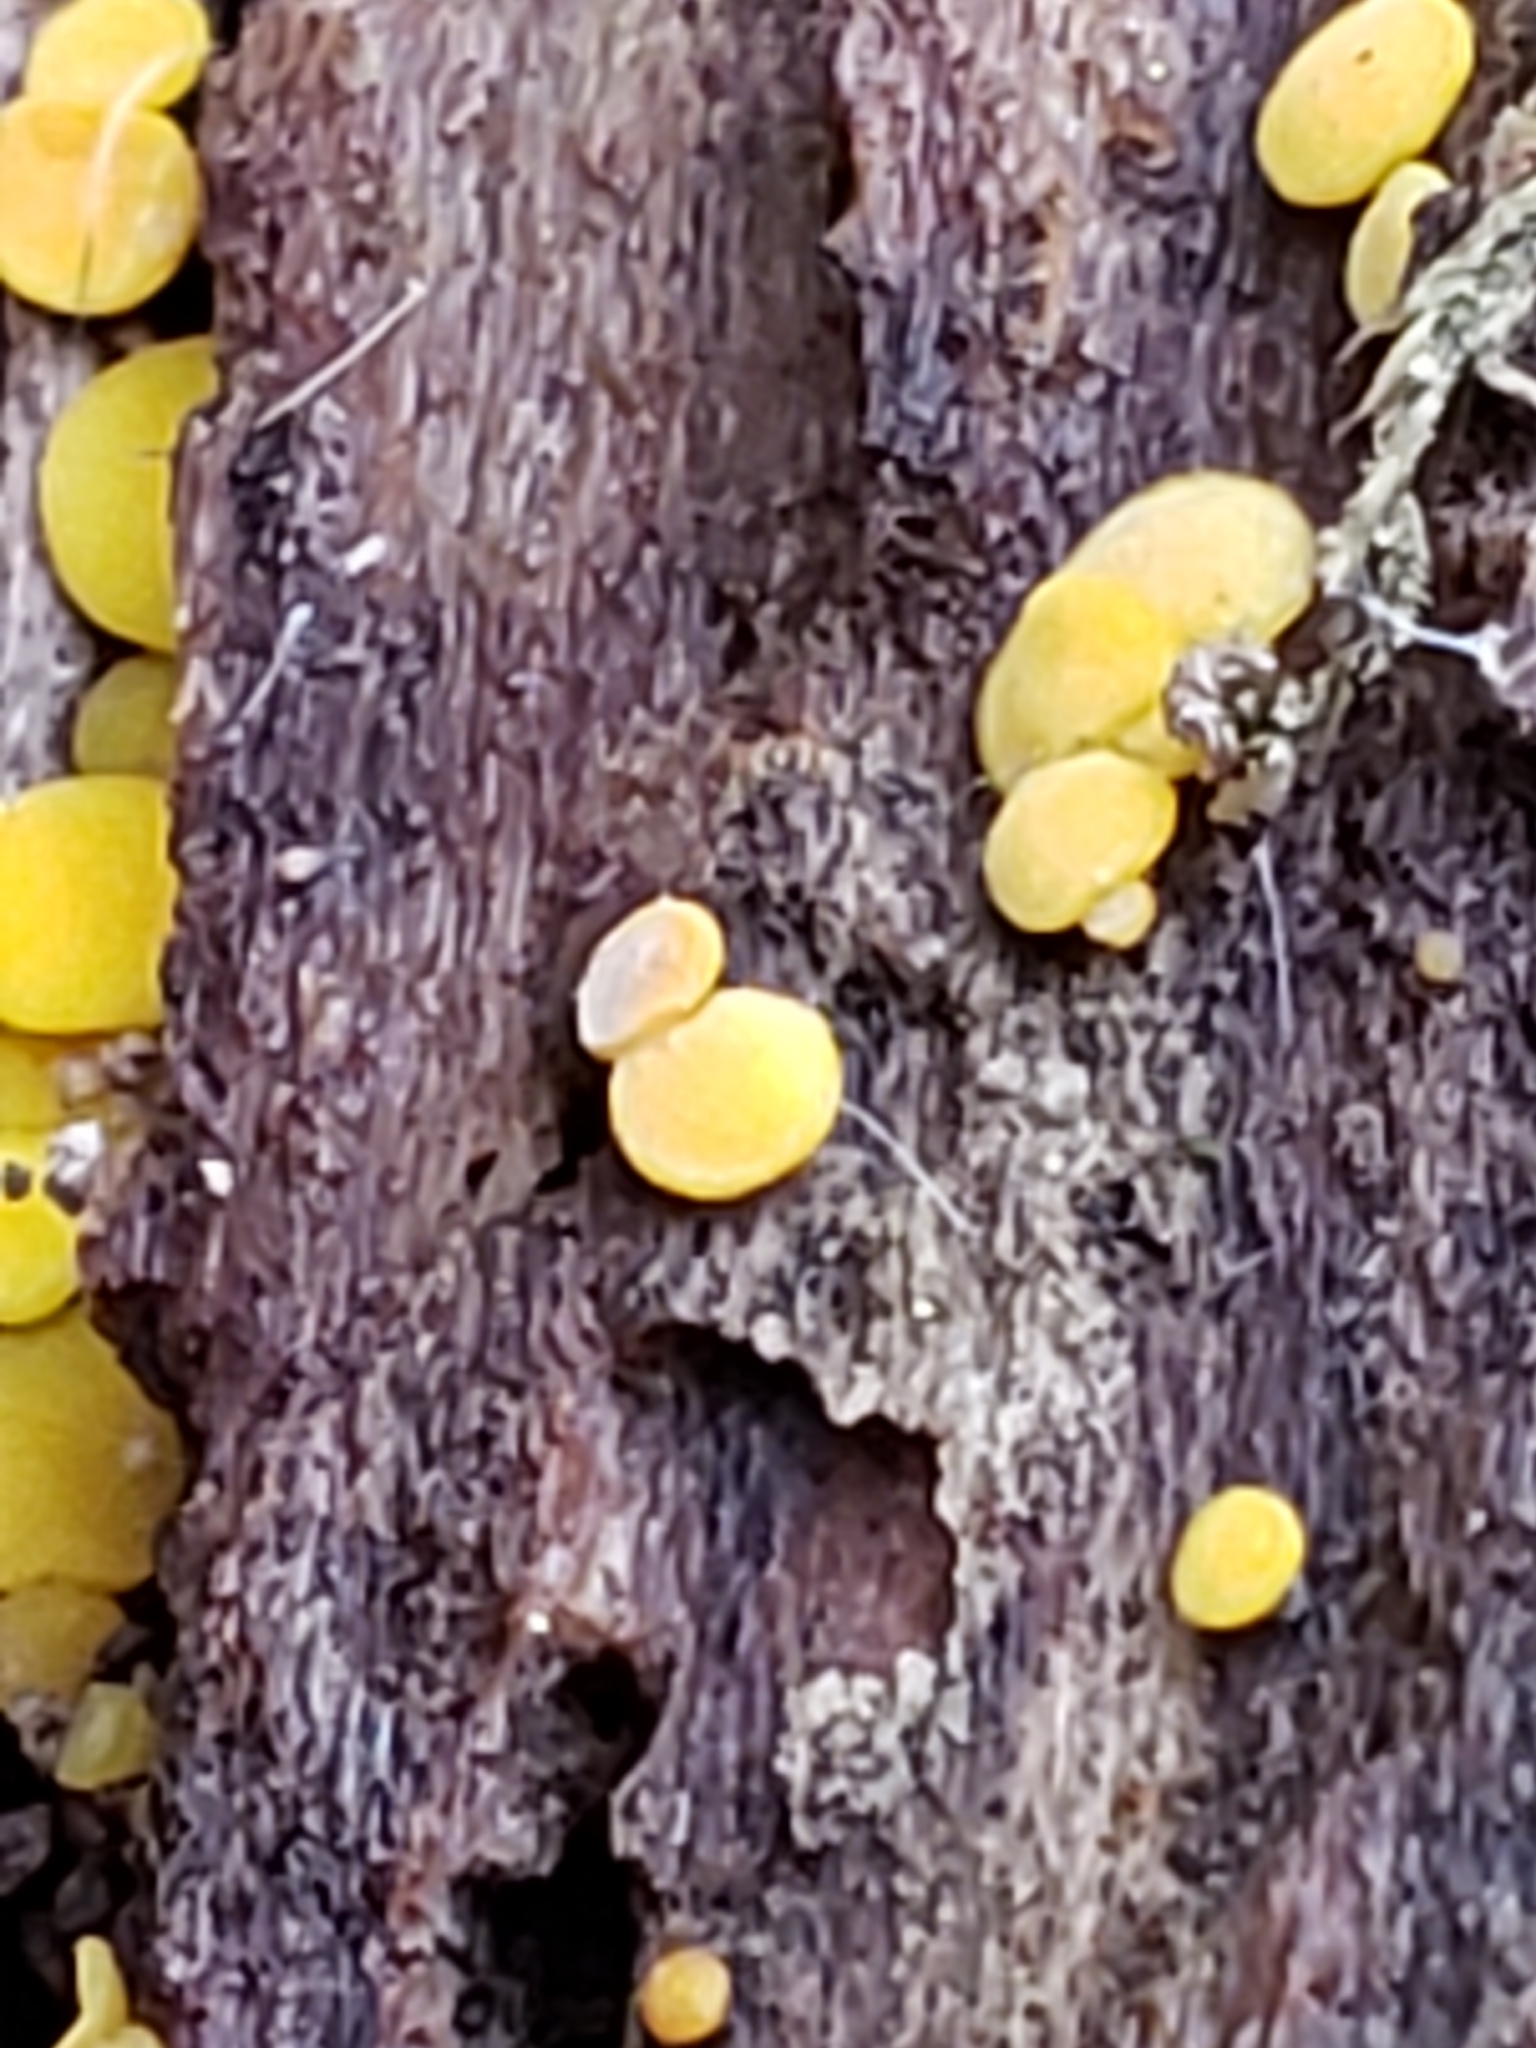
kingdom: Fungi
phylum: Ascomycota
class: Leotiomycetes
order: Helotiales
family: Pezizellaceae
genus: Calycina
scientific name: Calycina citrina
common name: Yellow fairy cups
